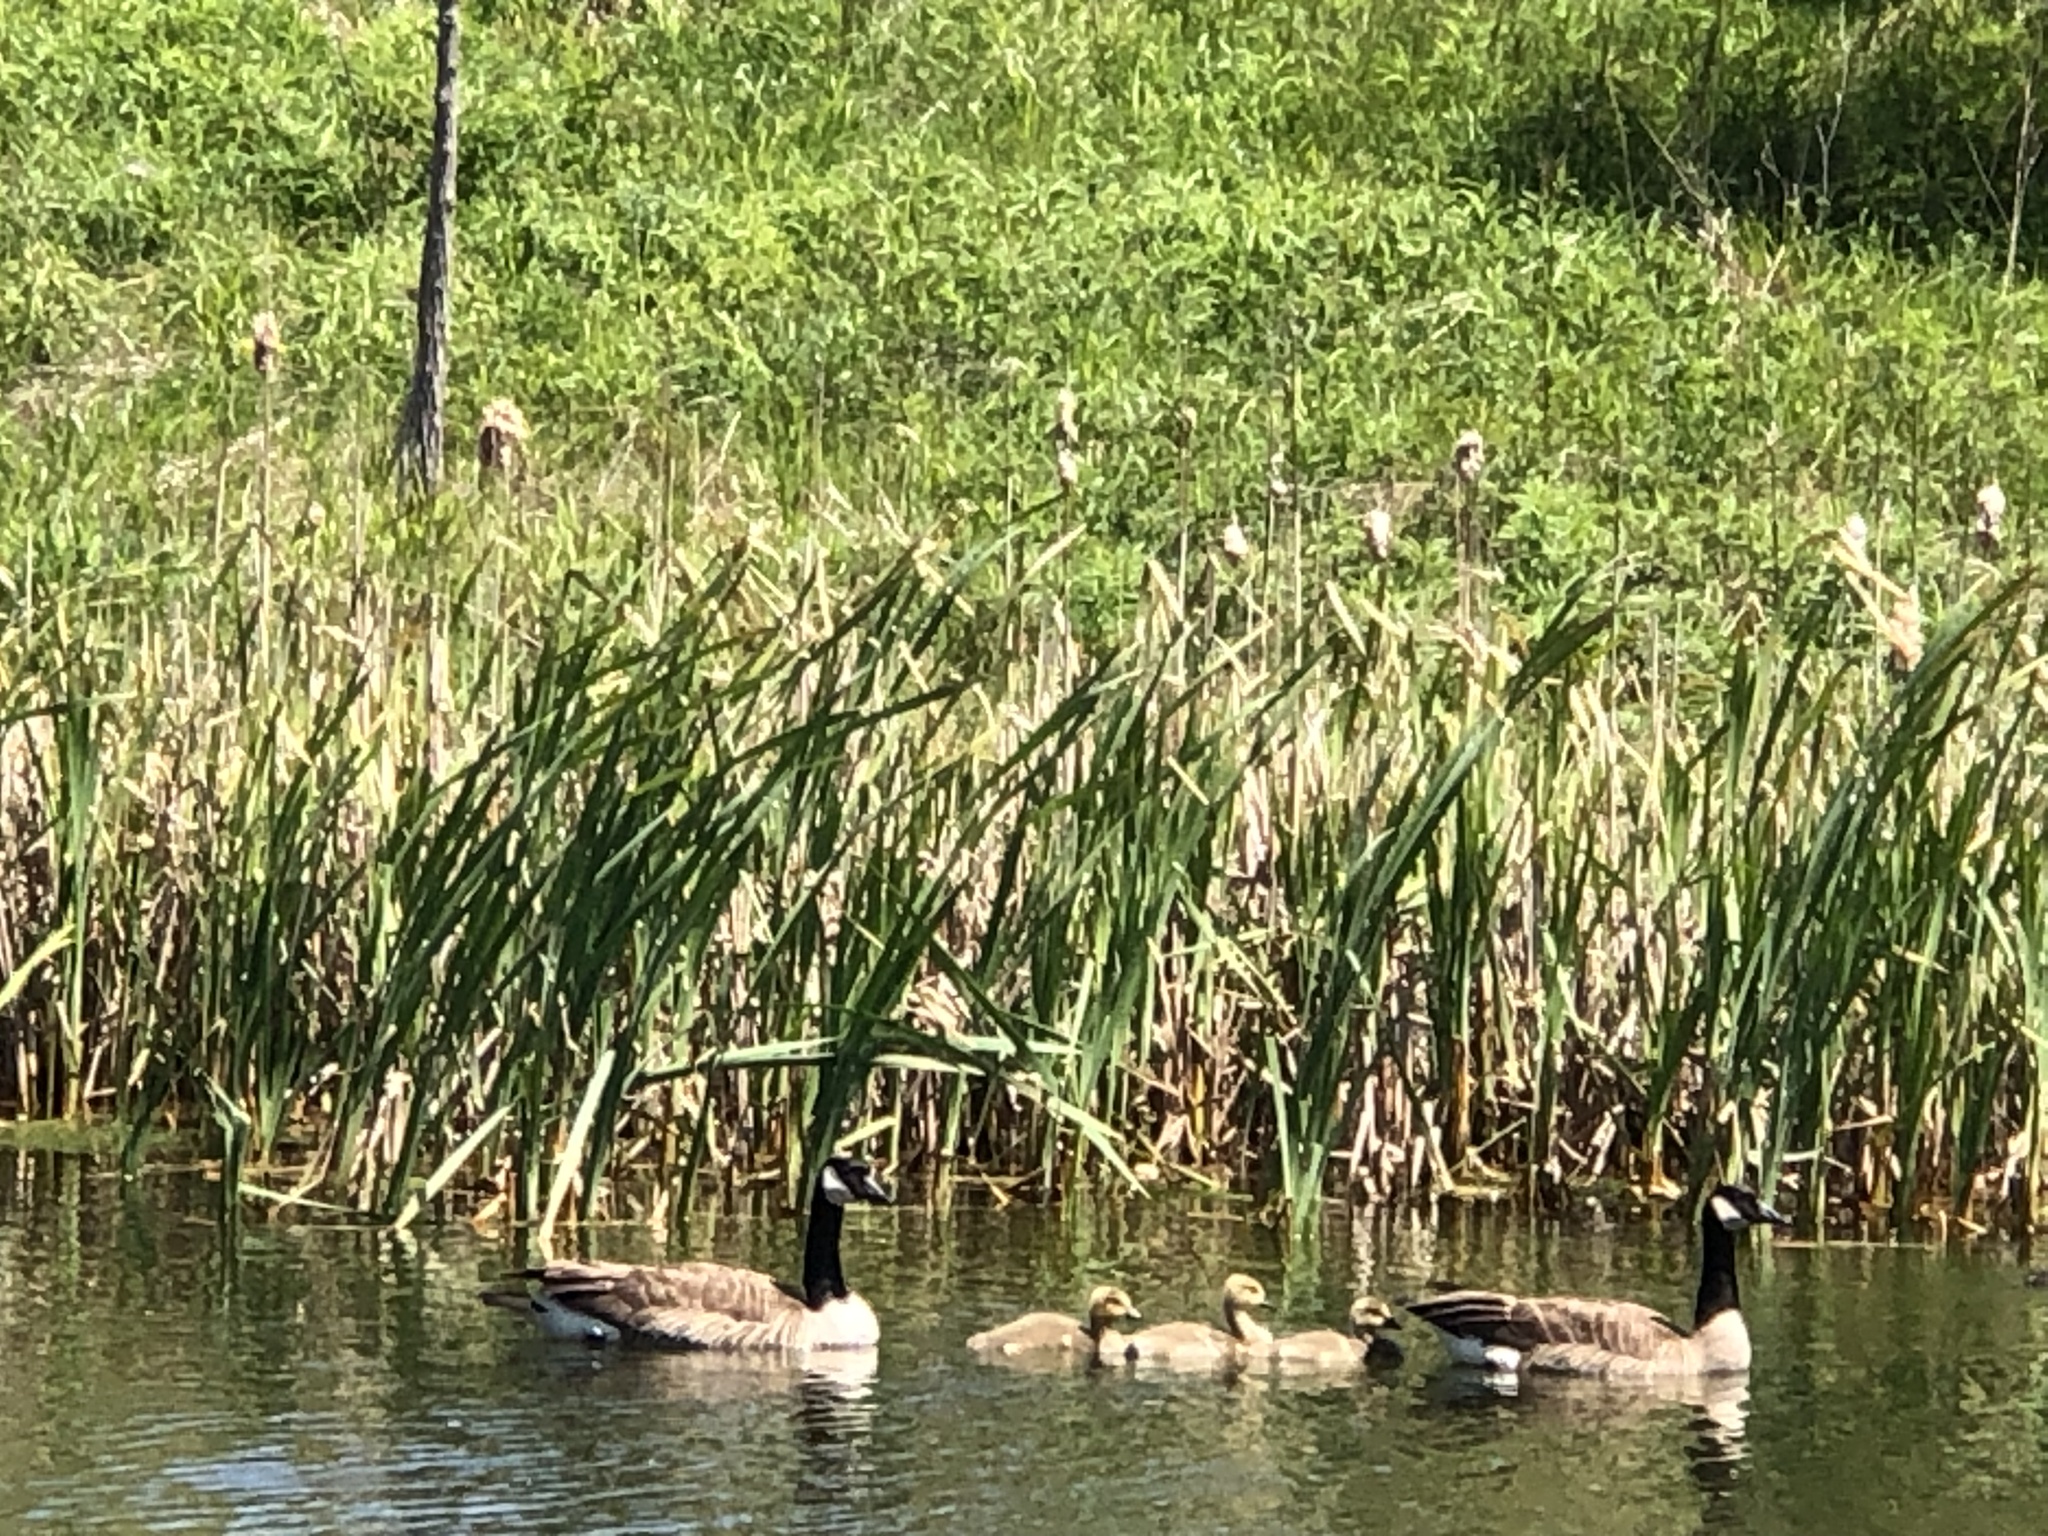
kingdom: Animalia
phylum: Chordata
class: Aves
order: Anseriformes
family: Anatidae
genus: Branta
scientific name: Branta canadensis
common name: Canada goose
